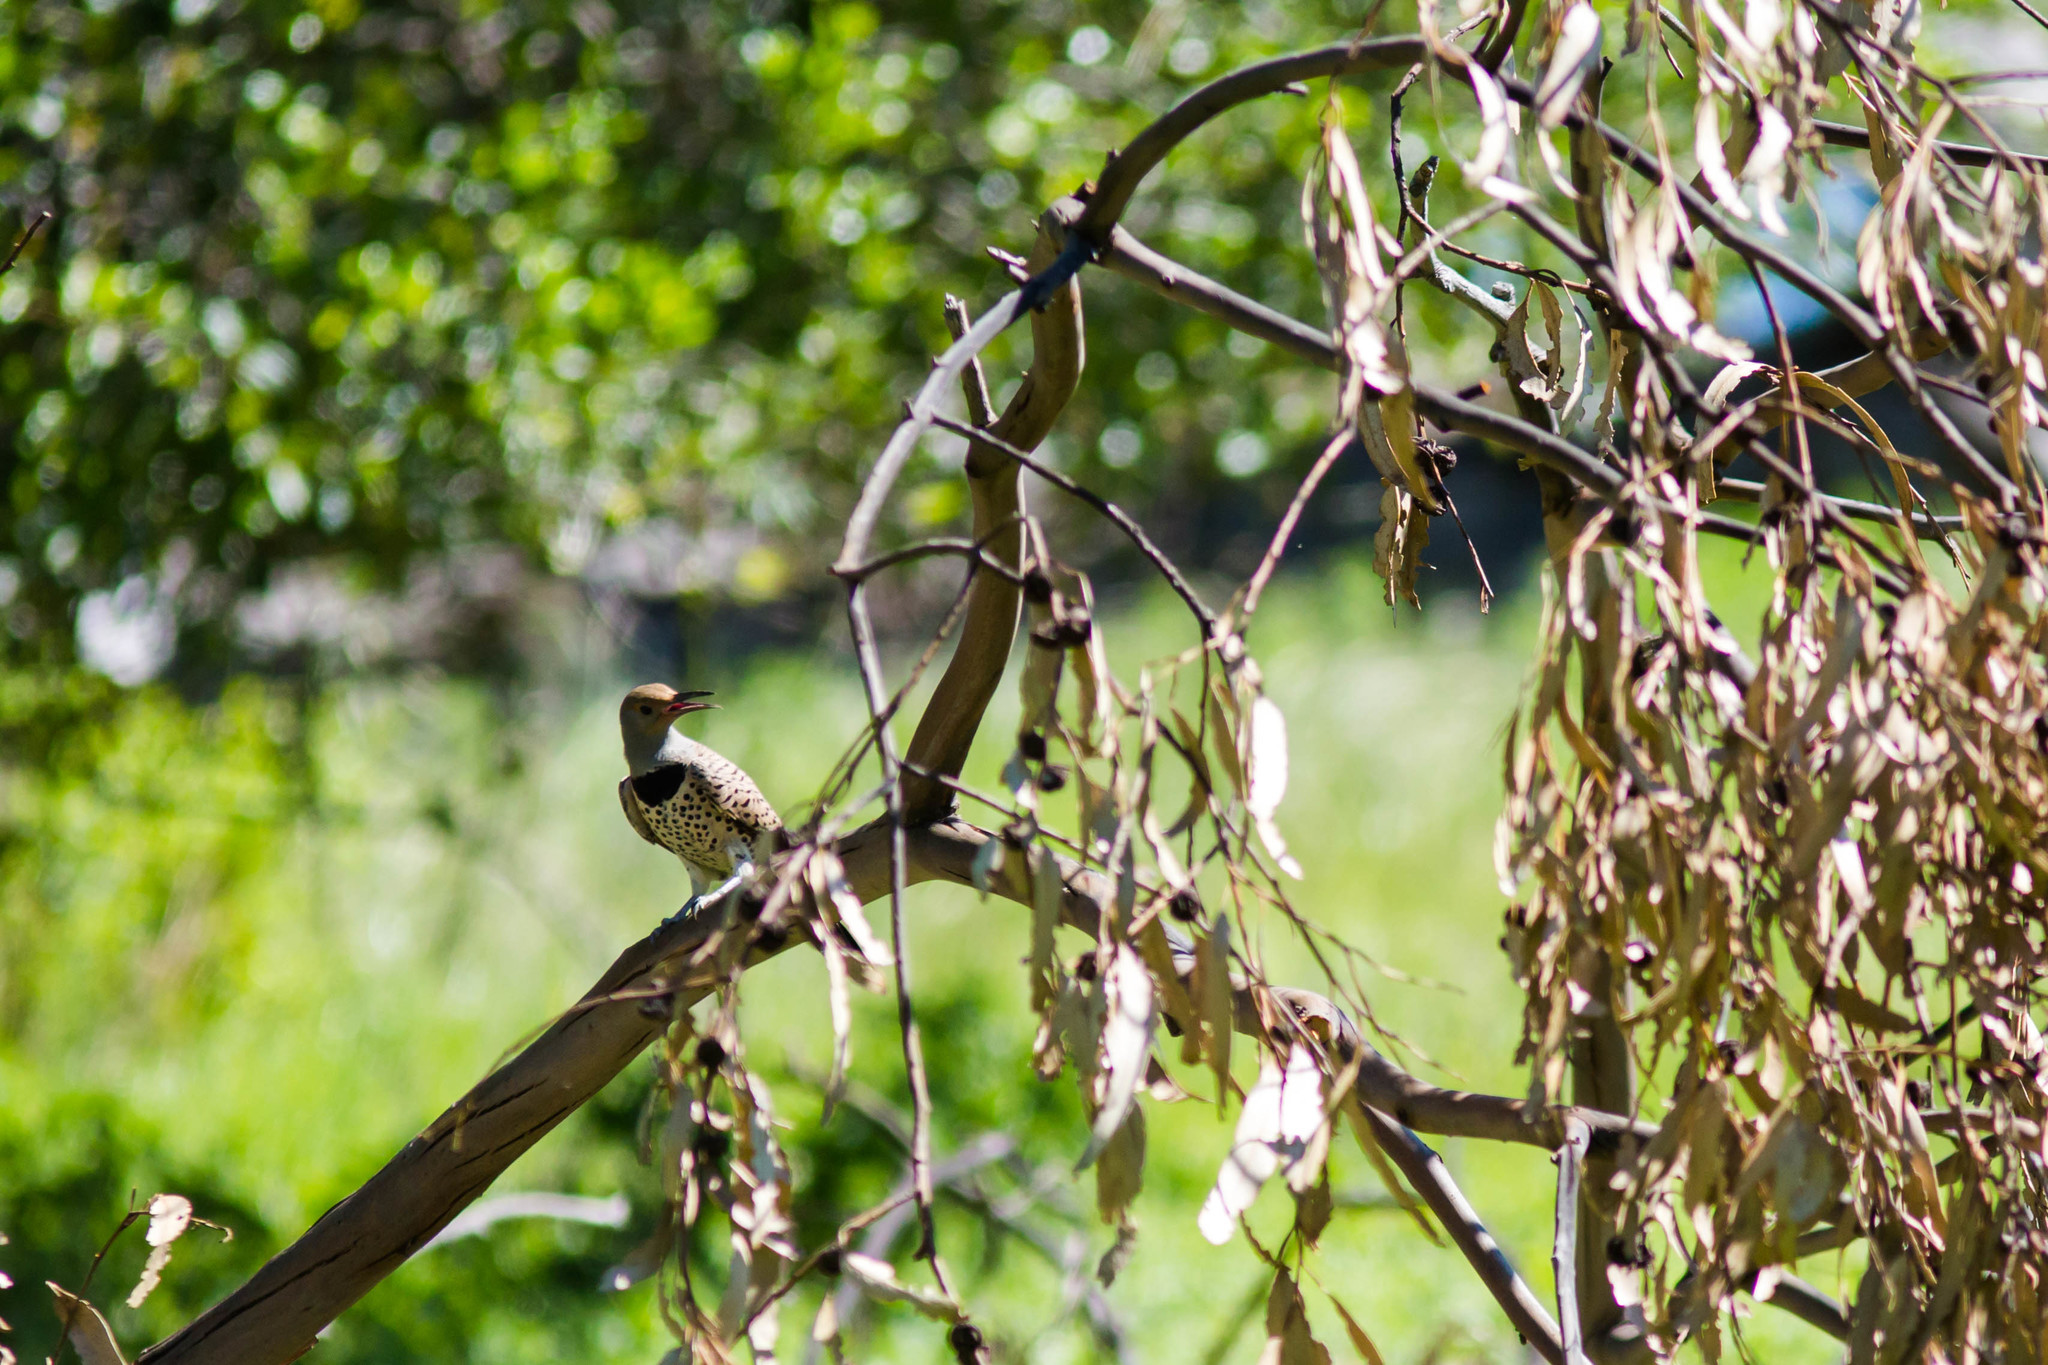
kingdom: Animalia
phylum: Chordata
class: Aves
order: Piciformes
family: Picidae
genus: Colaptes
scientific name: Colaptes auratus
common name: Northern flicker
